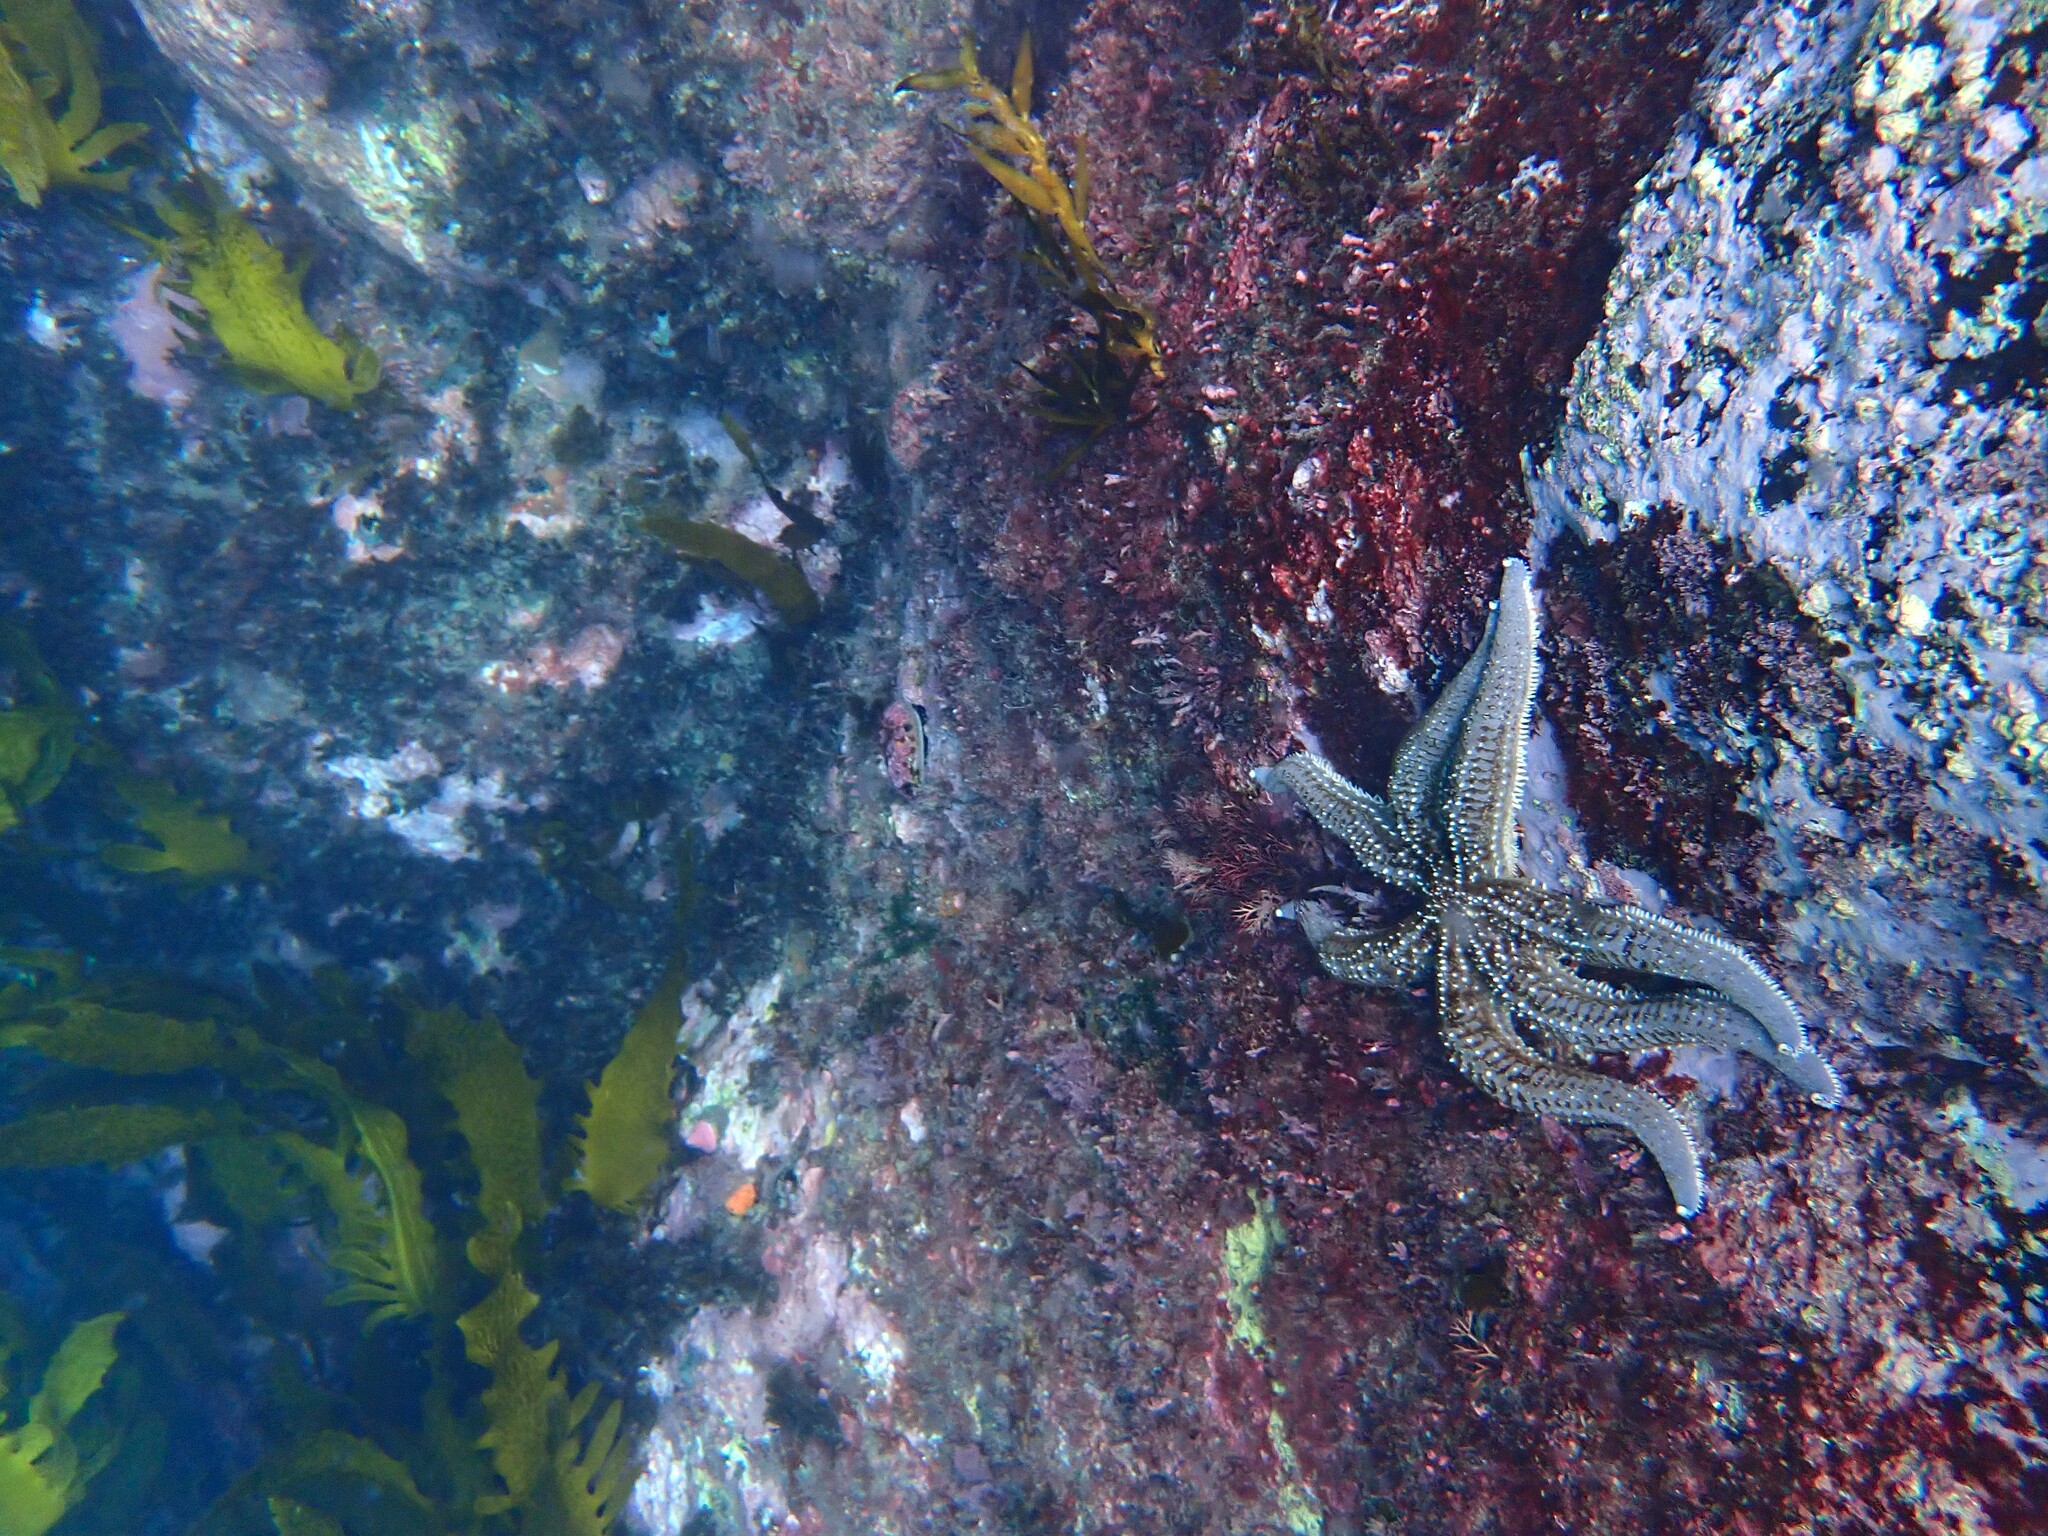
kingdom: Animalia
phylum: Echinodermata
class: Asteroidea
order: Forcipulatida
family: Asteriidae
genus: Astrostole
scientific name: Astrostole scabra
